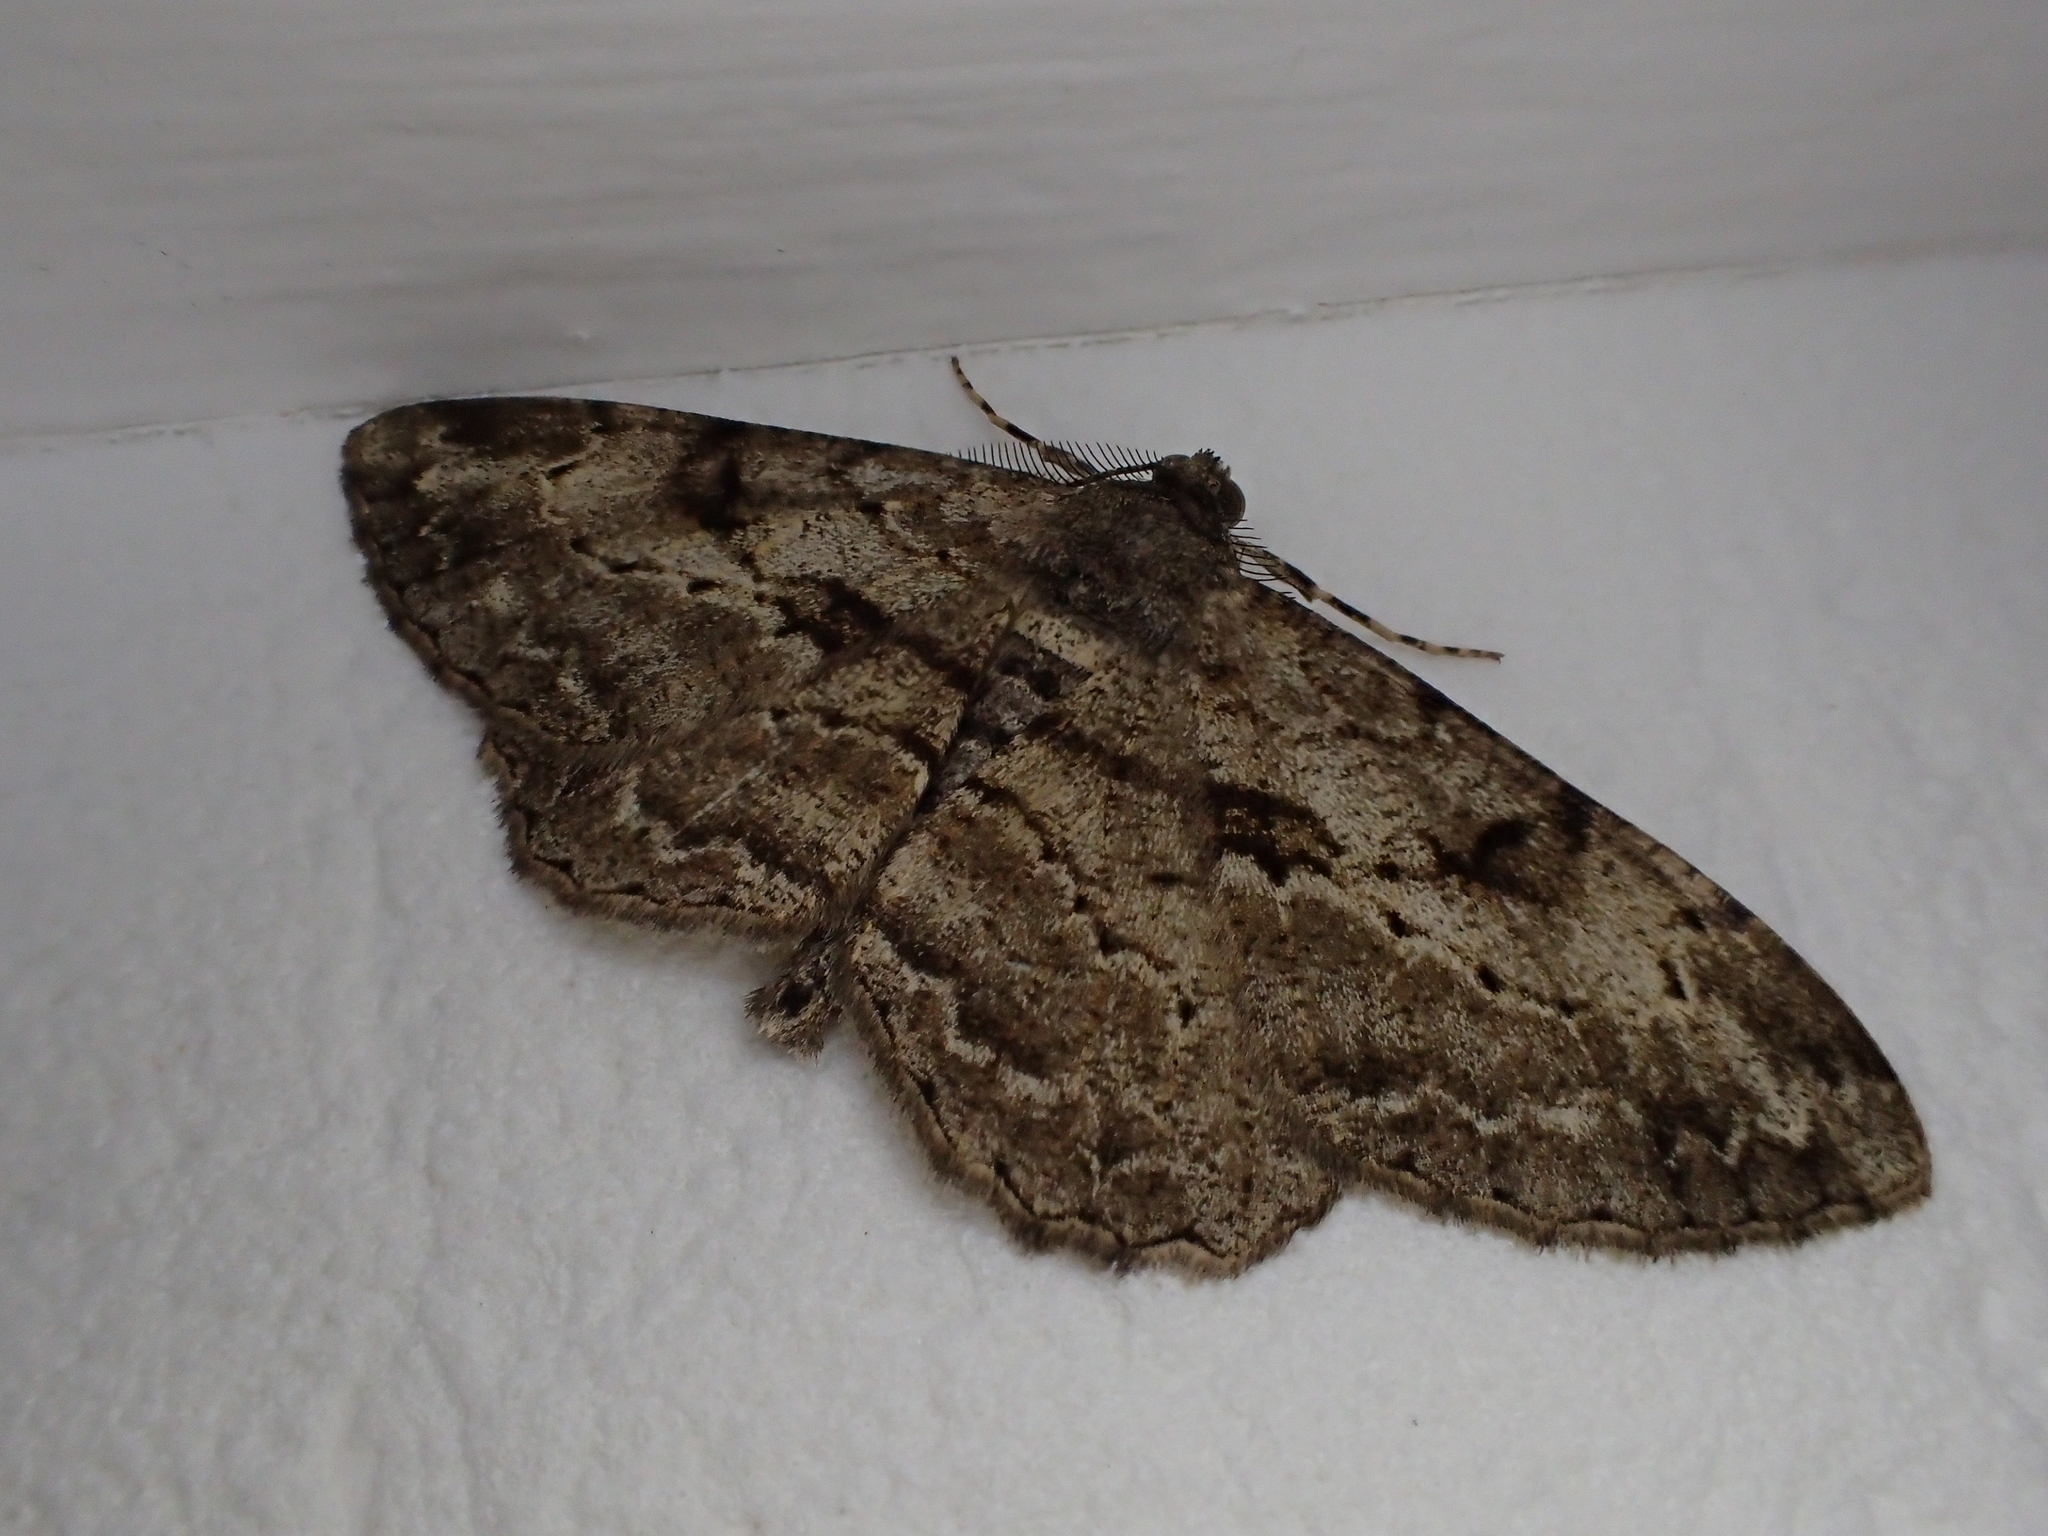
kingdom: Animalia
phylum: Arthropoda
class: Insecta
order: Lepidoptera
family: Geometridae
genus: Peribatodes
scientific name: Peribatodes rhomboidaria
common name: Willow beauty
